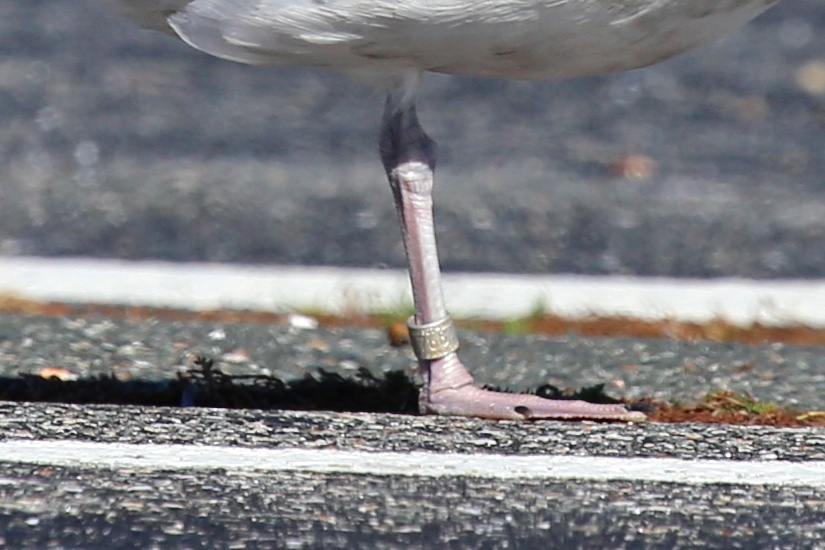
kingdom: Animalia
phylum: Chordata
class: Aves
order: Charadriiformes
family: Laridae
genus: Larus
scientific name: Larus argentatus
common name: Herring gull
